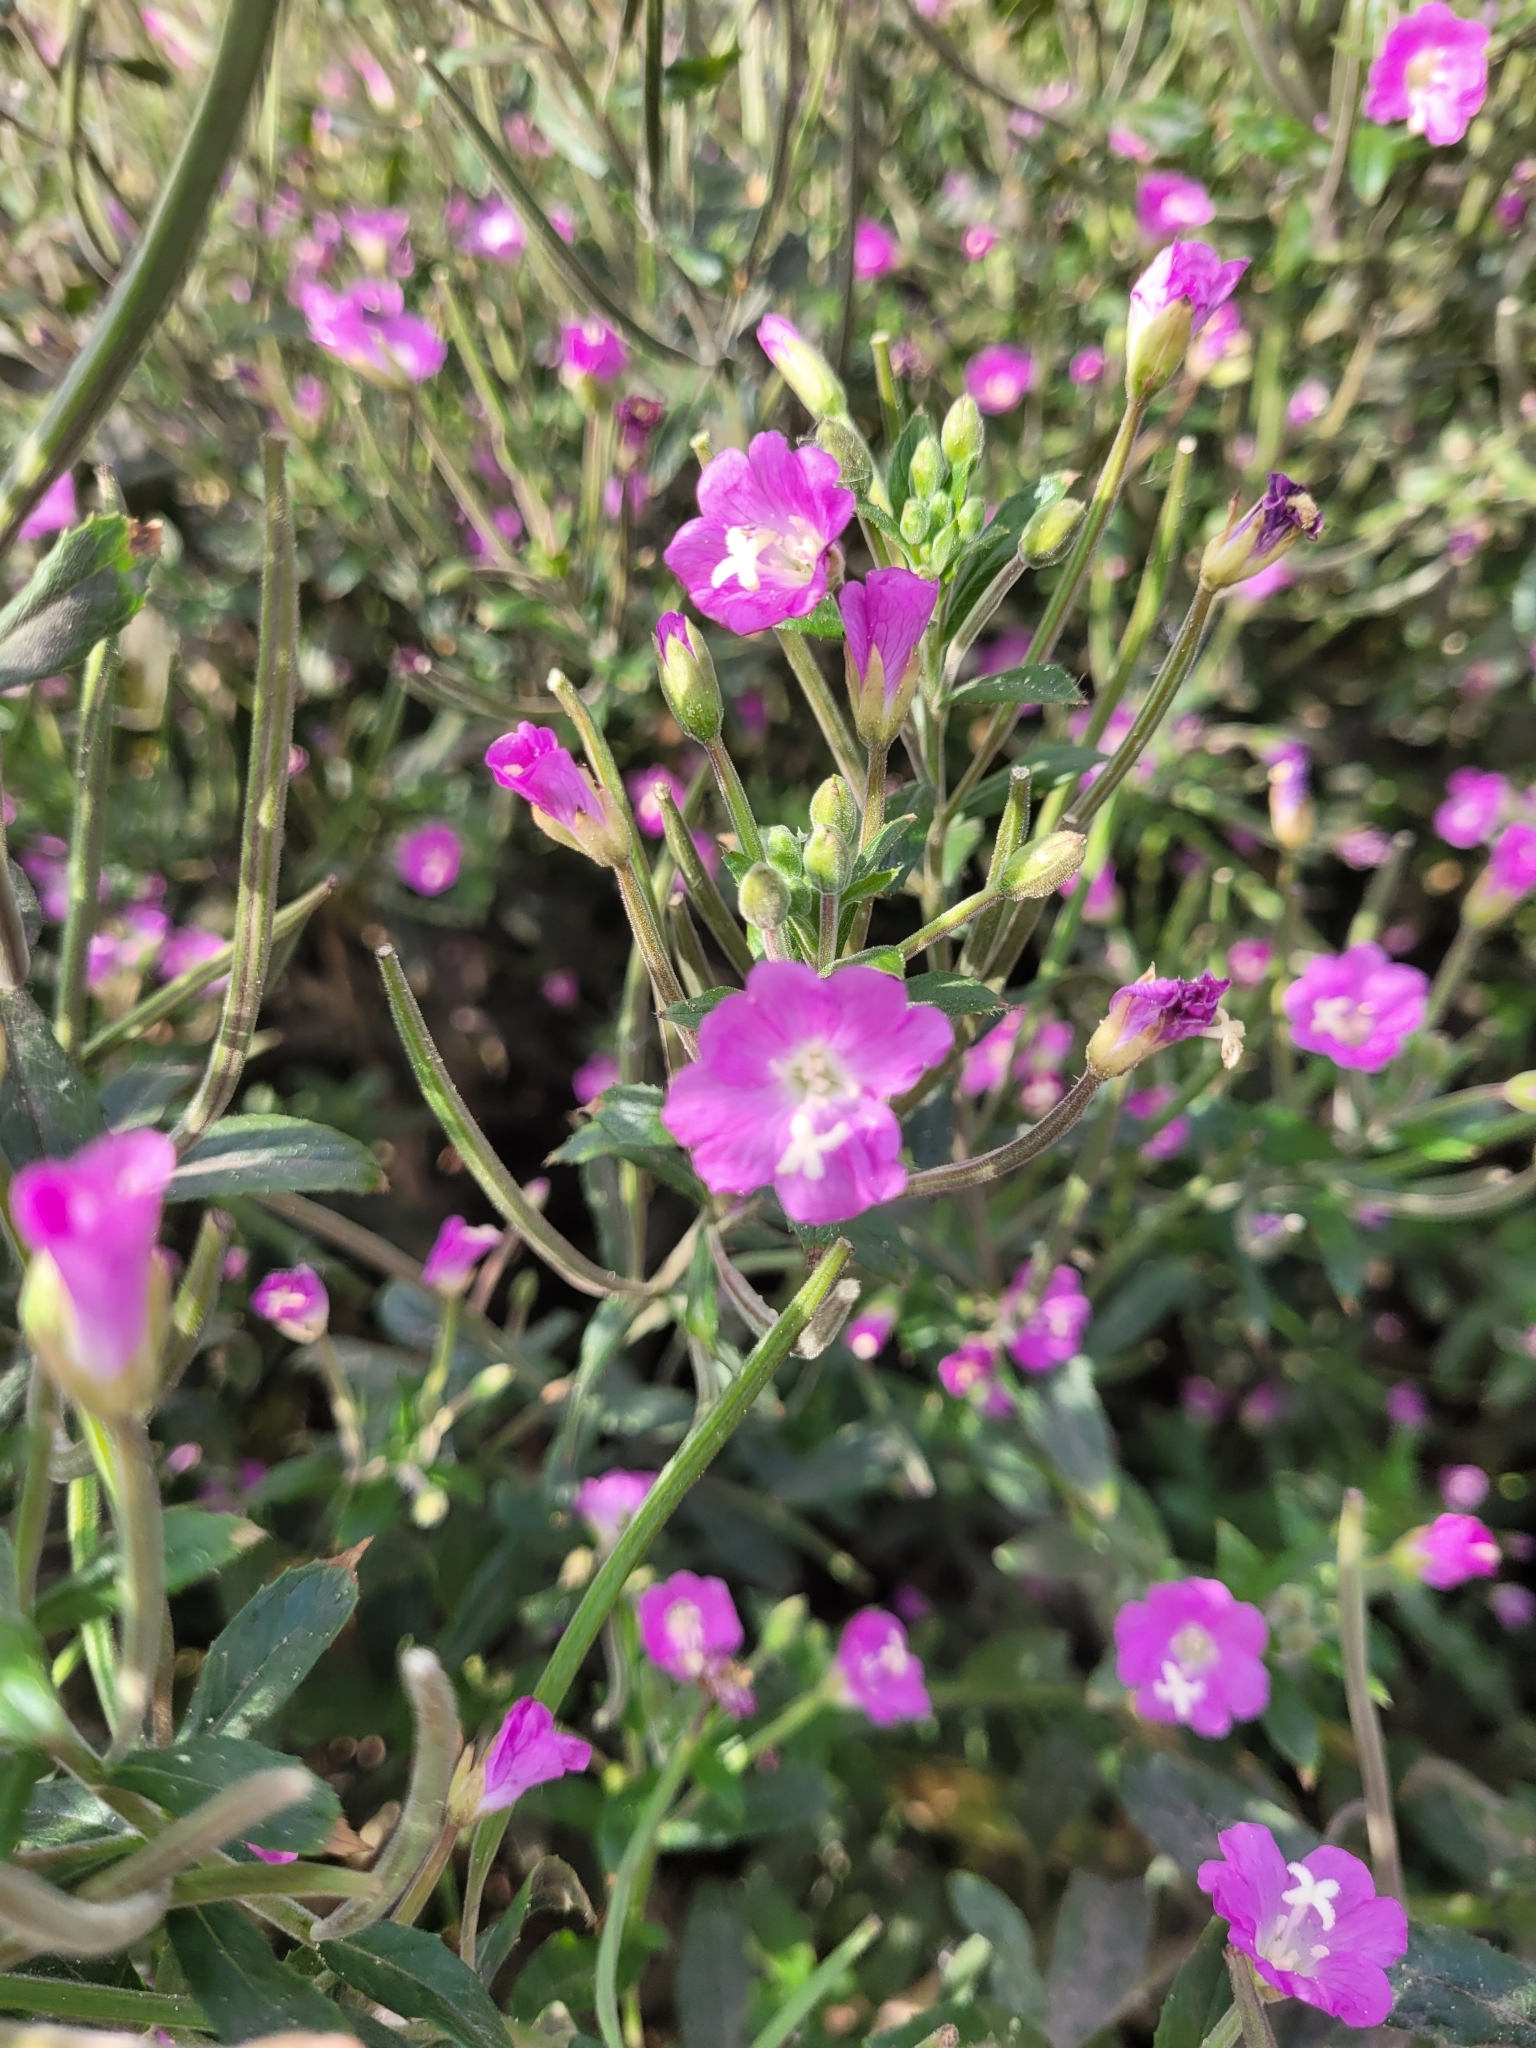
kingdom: Plantae
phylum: Tracheophyta
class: Magnoliopsida
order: Myrtales
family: Onagraceae
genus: Epilobium
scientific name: Epilobium hirsutum
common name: Great willowherb
